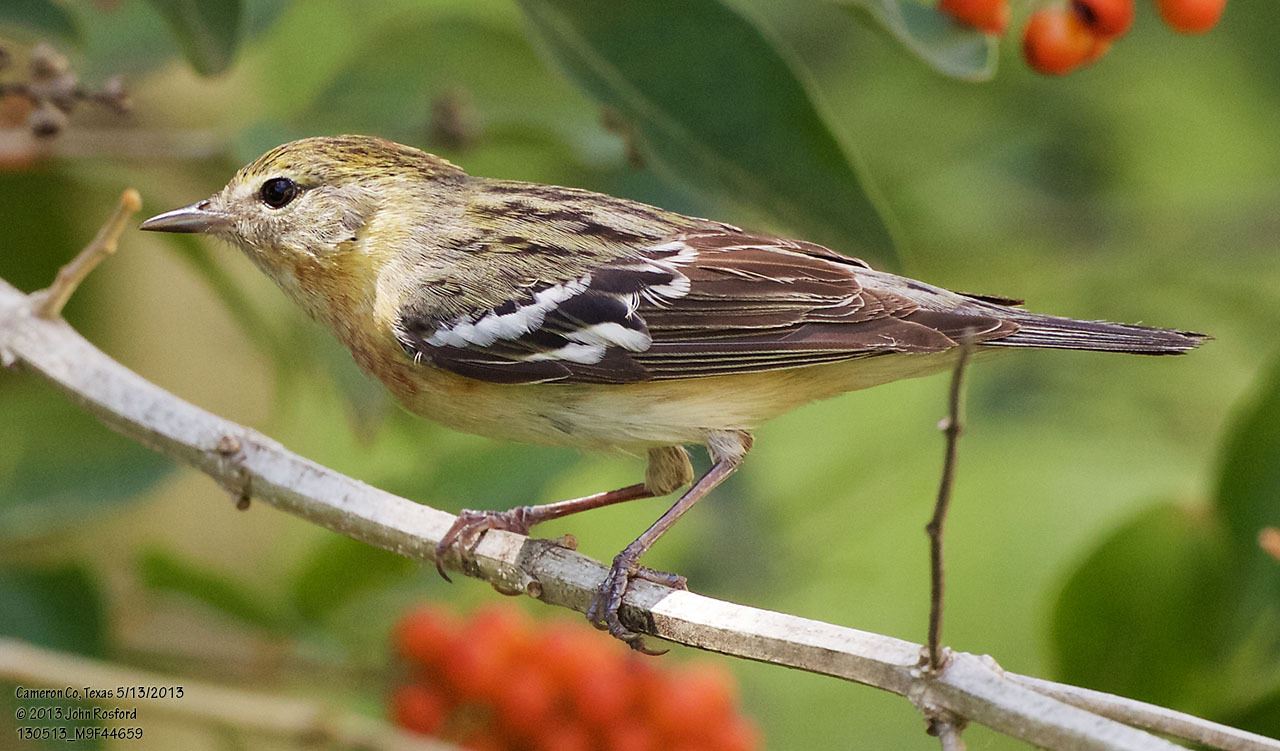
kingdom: Animalia
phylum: Chordata
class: Aves
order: Passeriformes
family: Parulidae
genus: Setophaga
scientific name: Setophaga castanea
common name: Bay-breasted warbler
